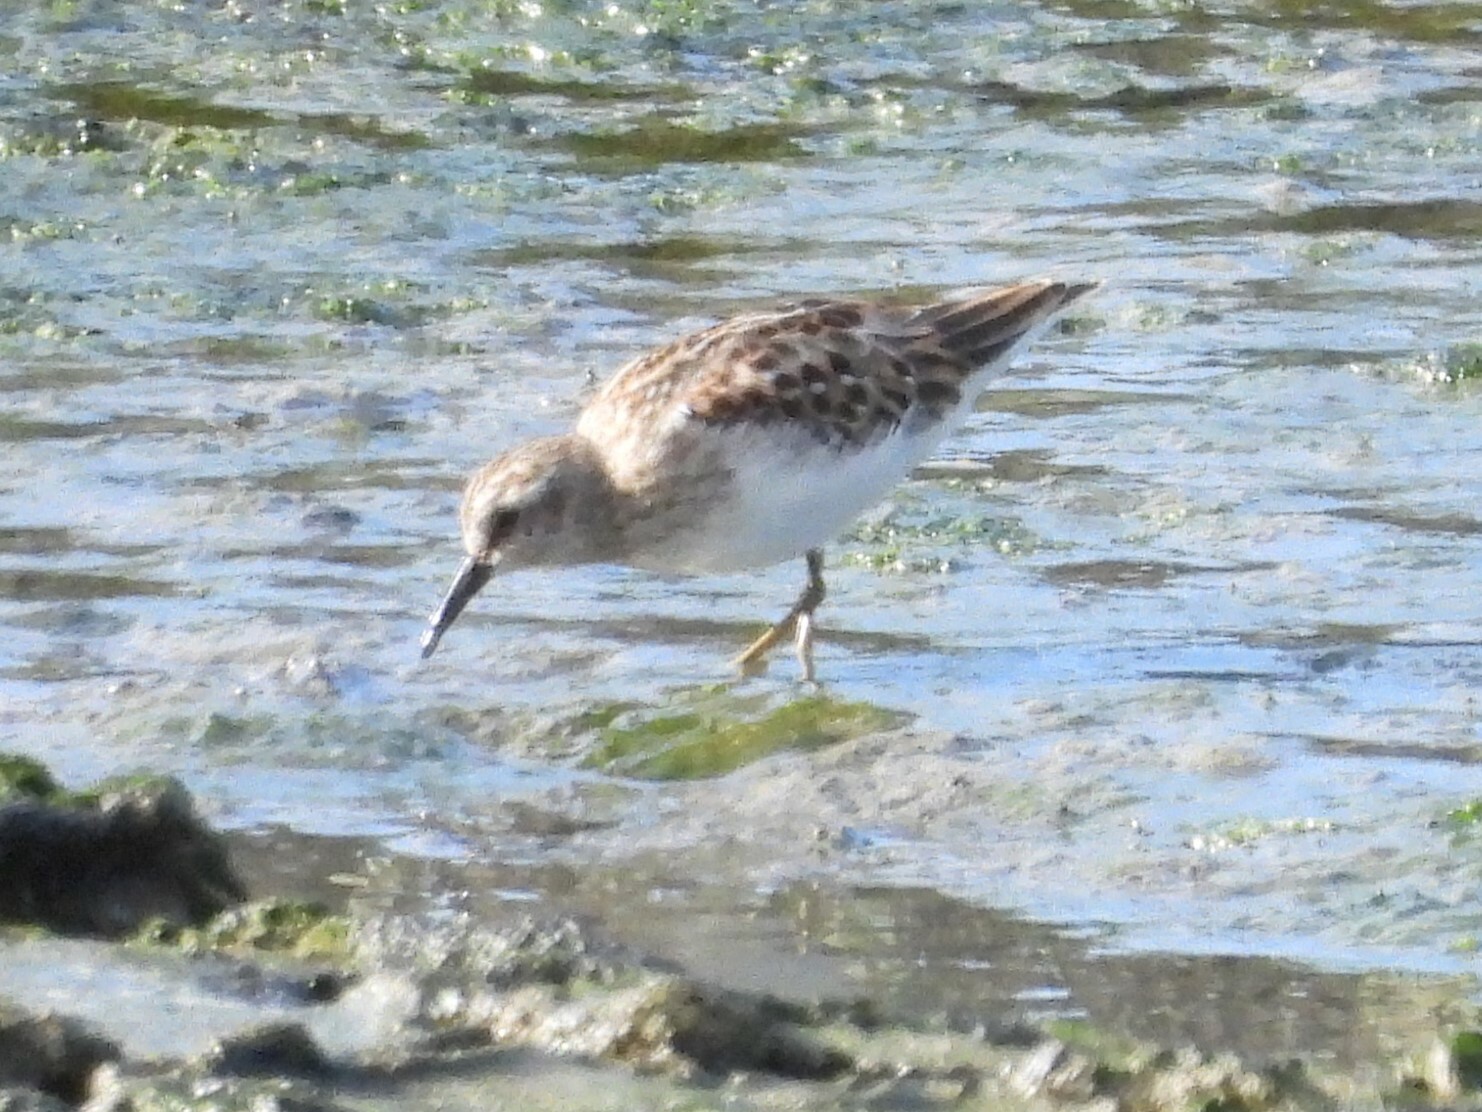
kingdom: Animalia
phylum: Chordata
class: Aves
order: Charadriiformes
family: Scolopacidae
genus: Calidris
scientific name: Calidris minutilla
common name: Least sandpiper
